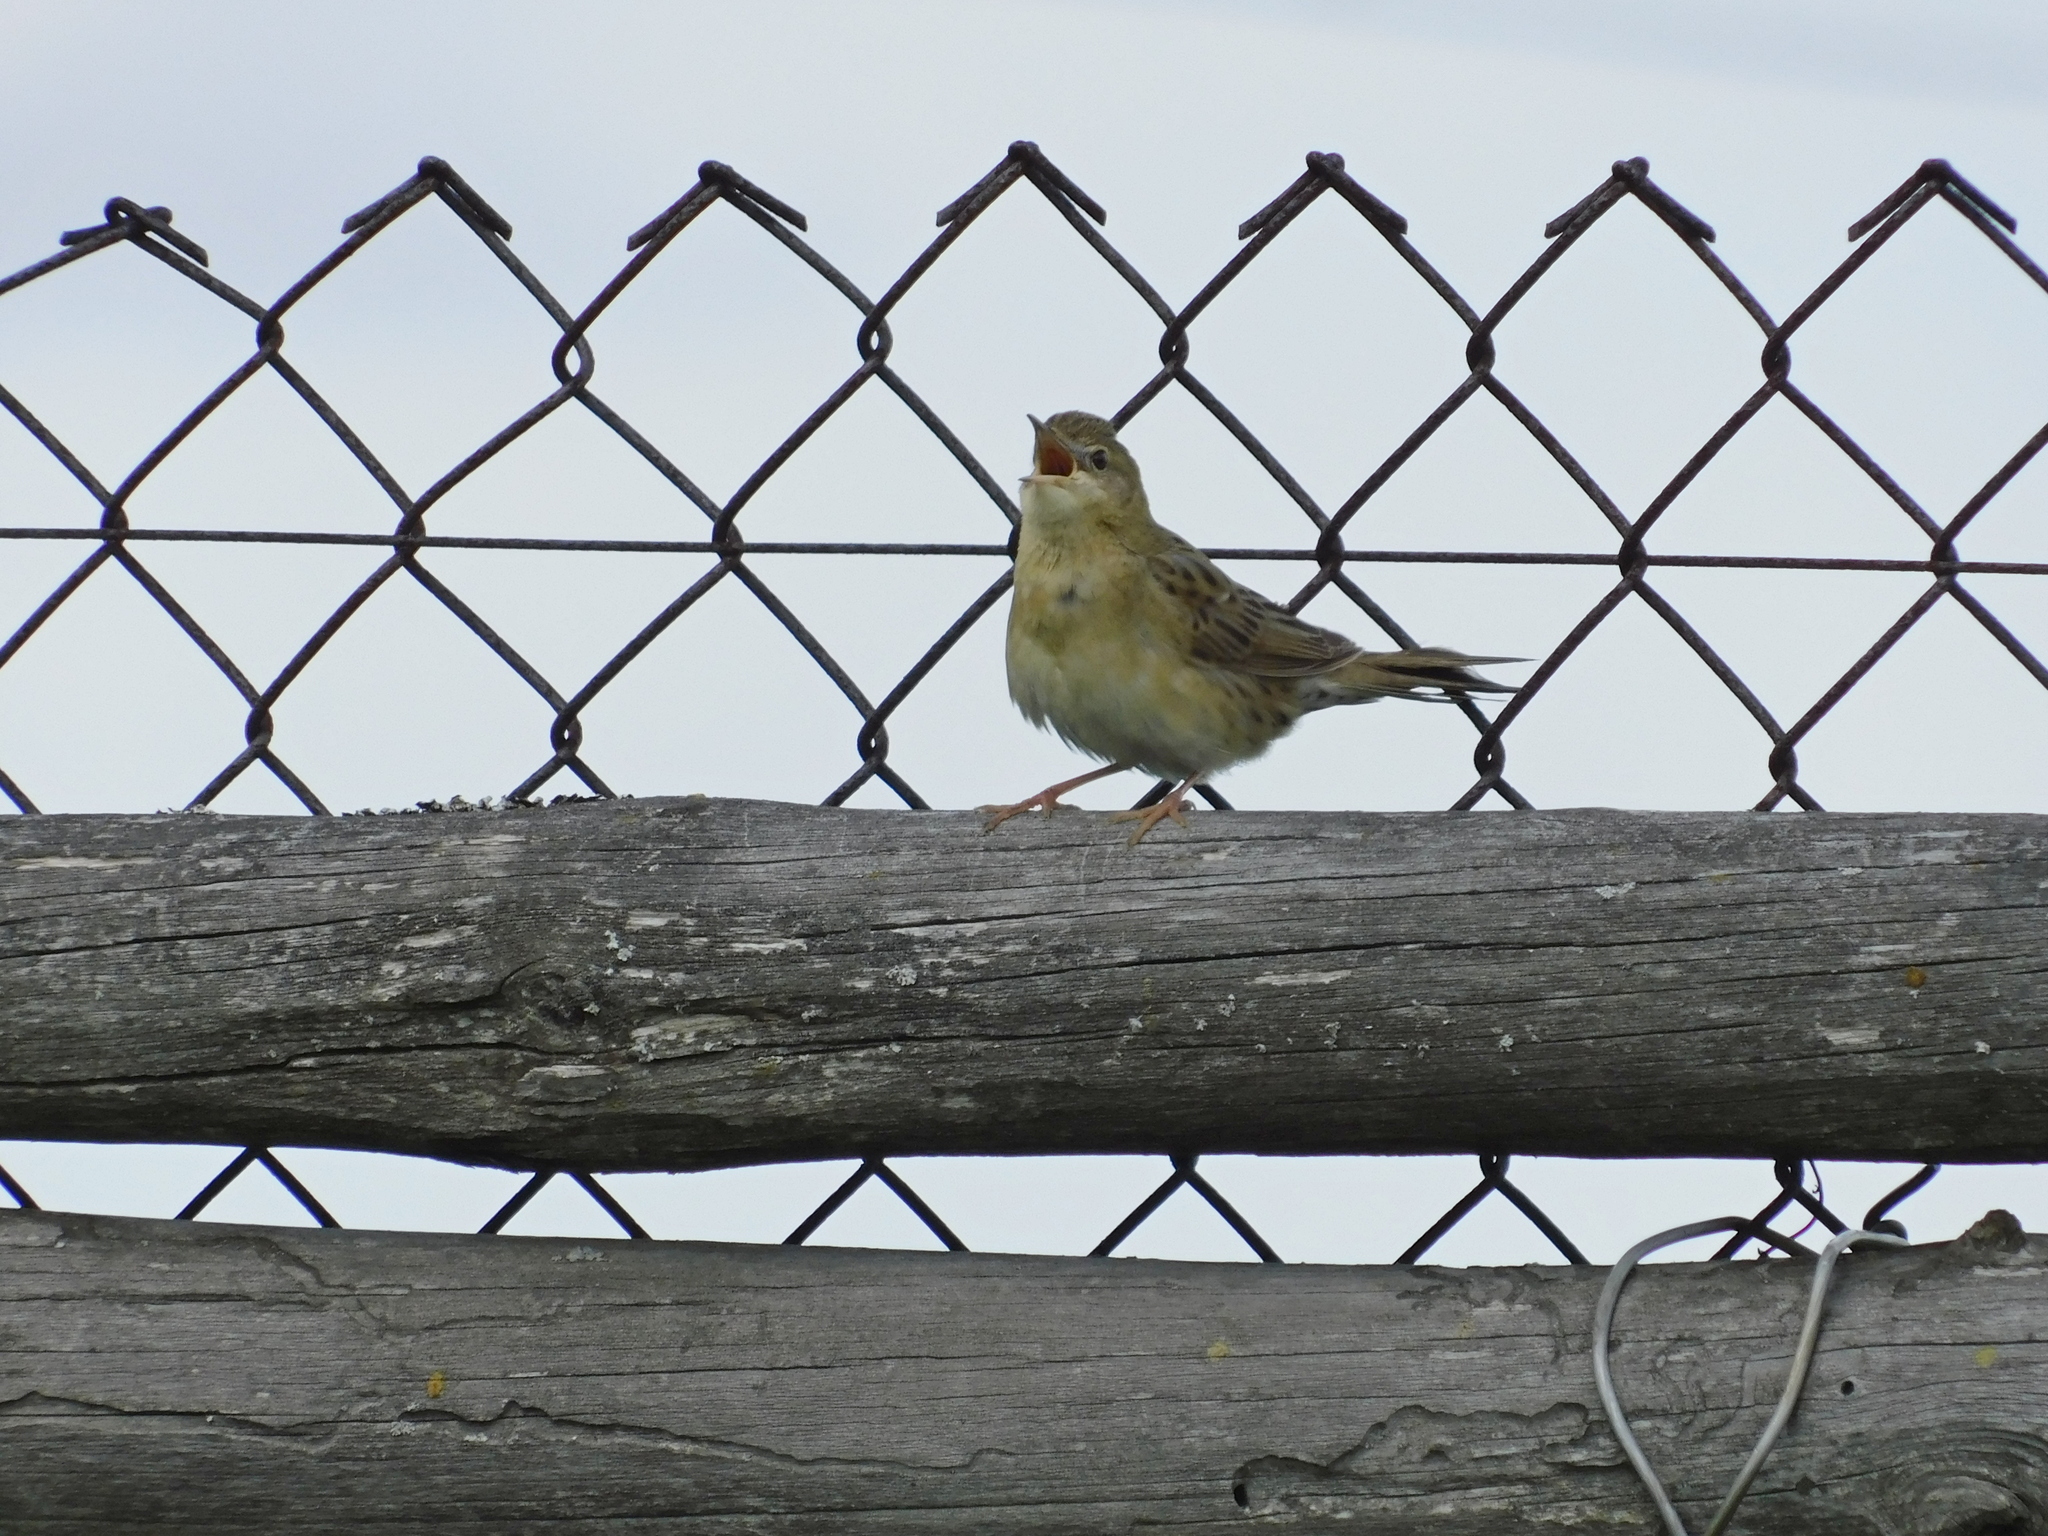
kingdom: Animalia
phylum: Chordata
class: Aves
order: Passeriformes
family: Locustellidae
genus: Locustella
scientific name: Locustella naevia
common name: Common grasshopper warbler
